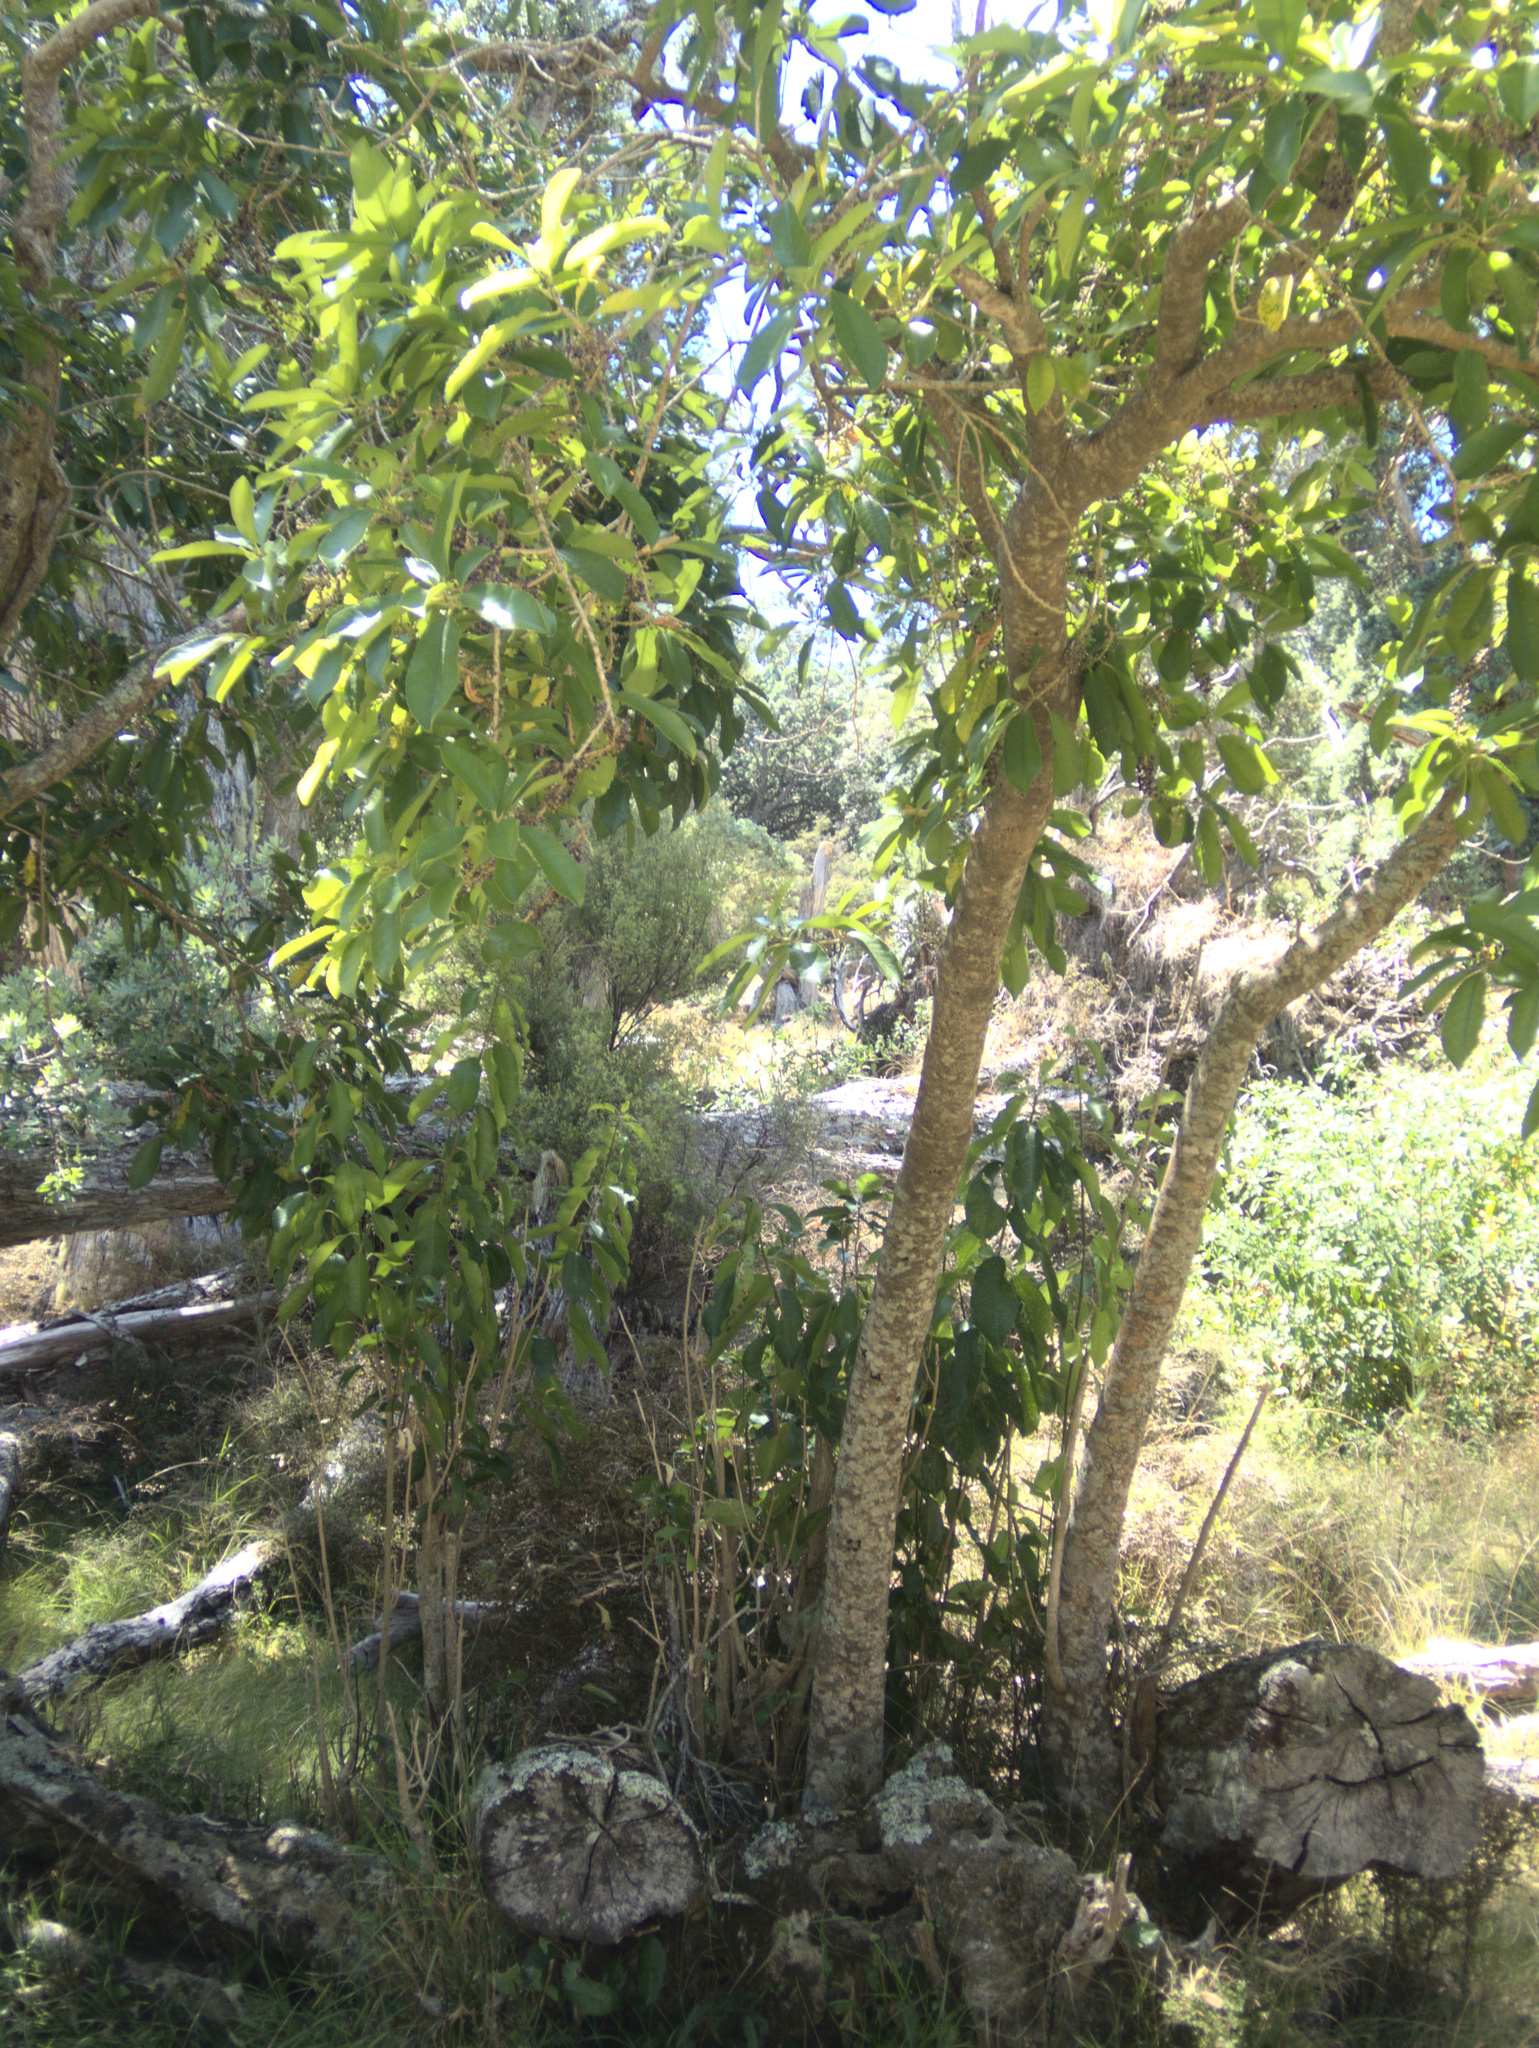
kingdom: Plantae
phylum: Tracheophyta
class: Magnoliopsida
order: Malpighiales
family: Violaceae
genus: Melicytus
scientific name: Melicytus ramiflorus
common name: Mahoe
